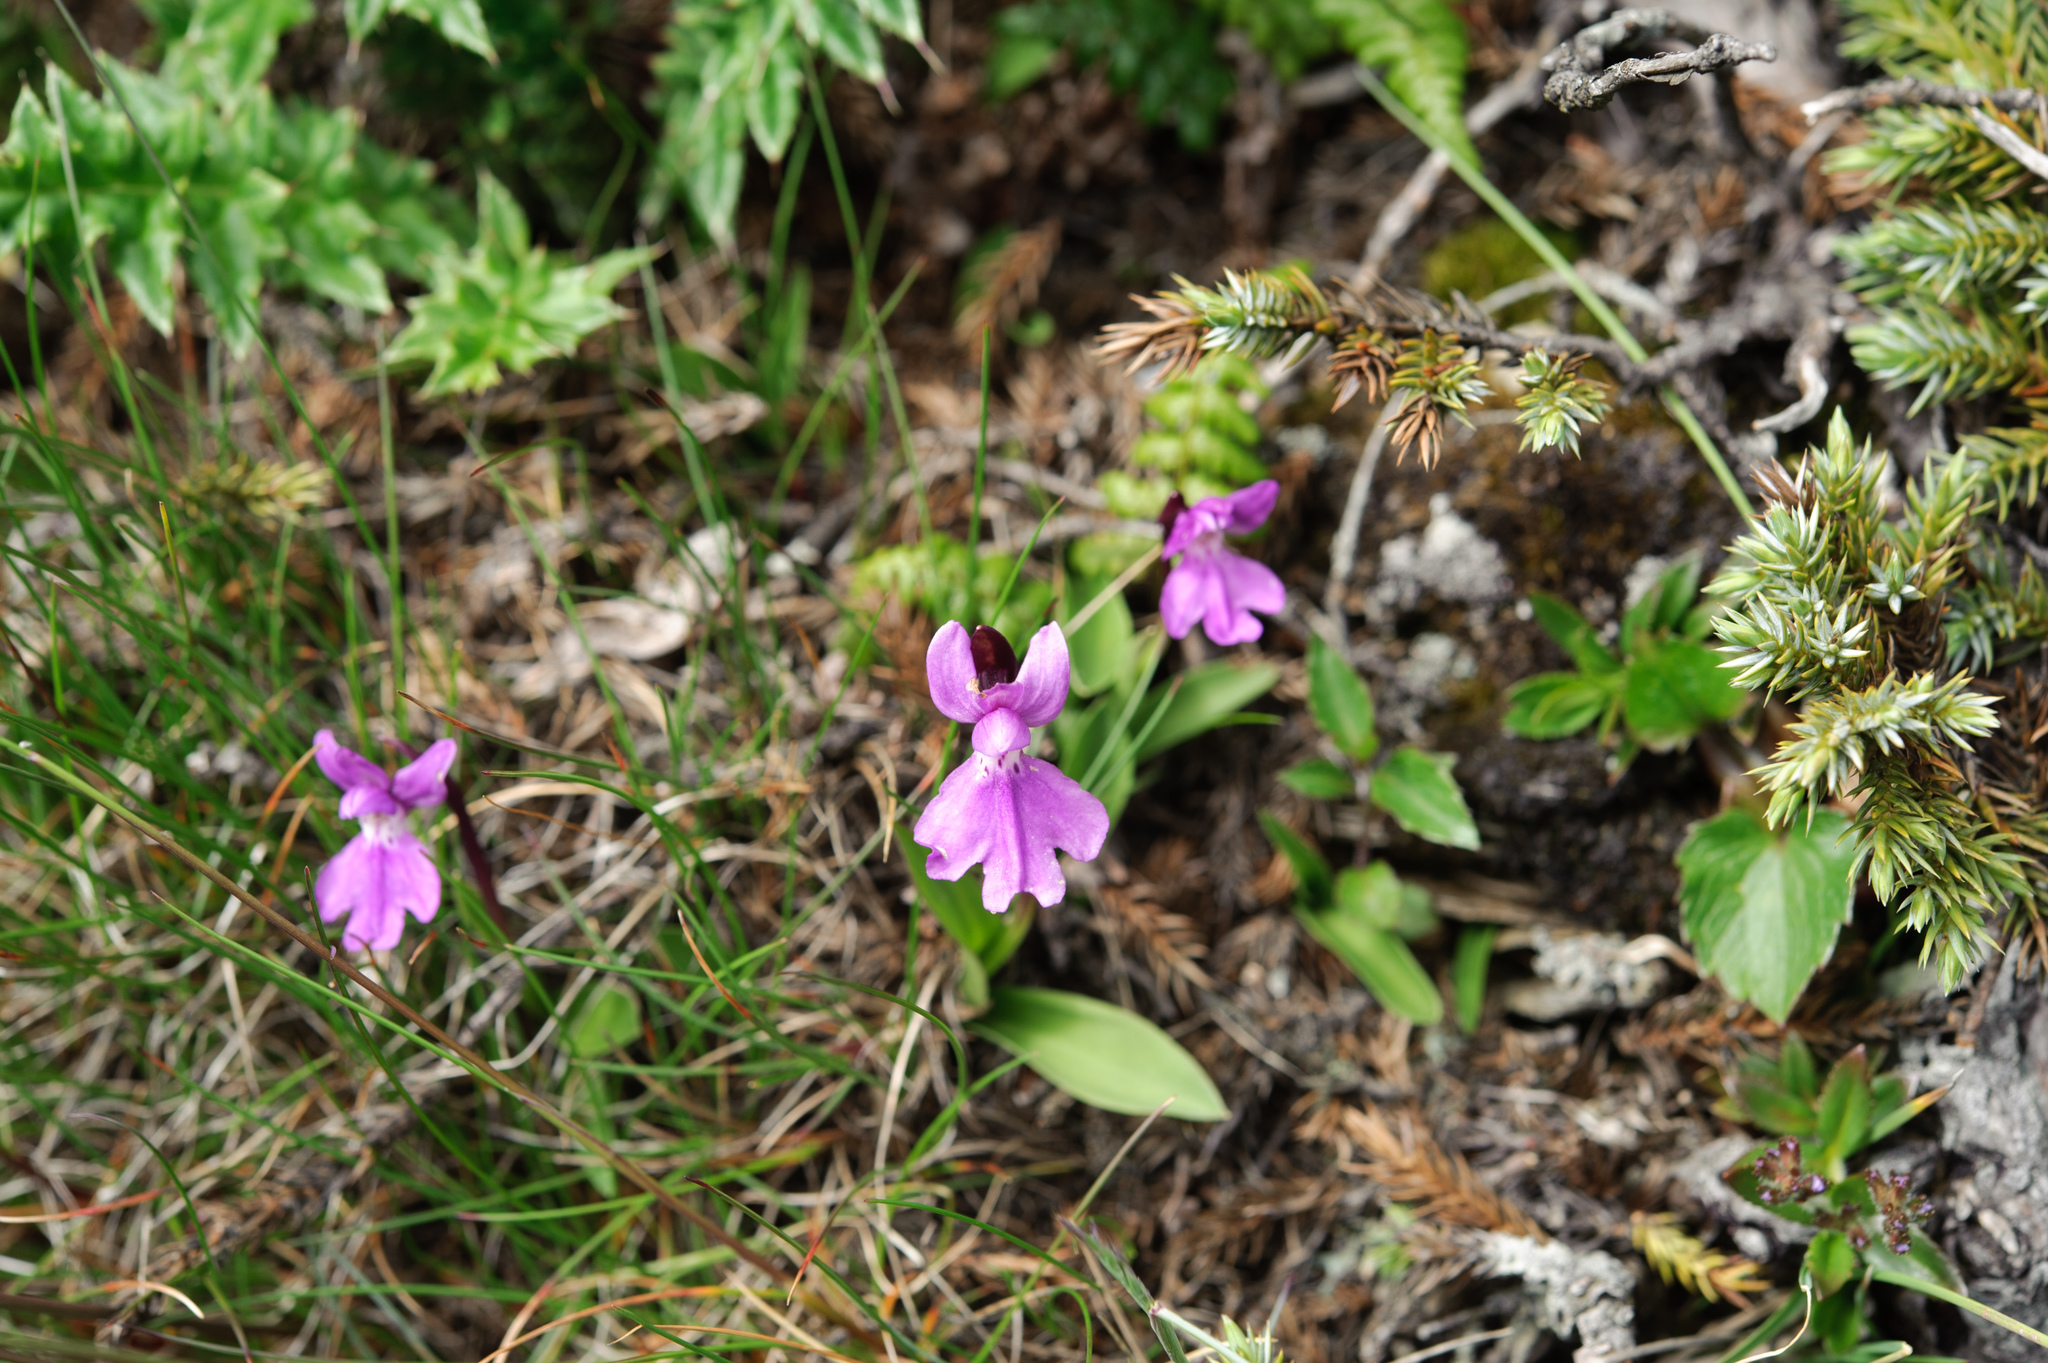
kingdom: Plantae
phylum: Tracheophyta
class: Liliopsida
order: Asparagales
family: Orchidaceae
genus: Hemipilia
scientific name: Hemipilia kiraishiensis
